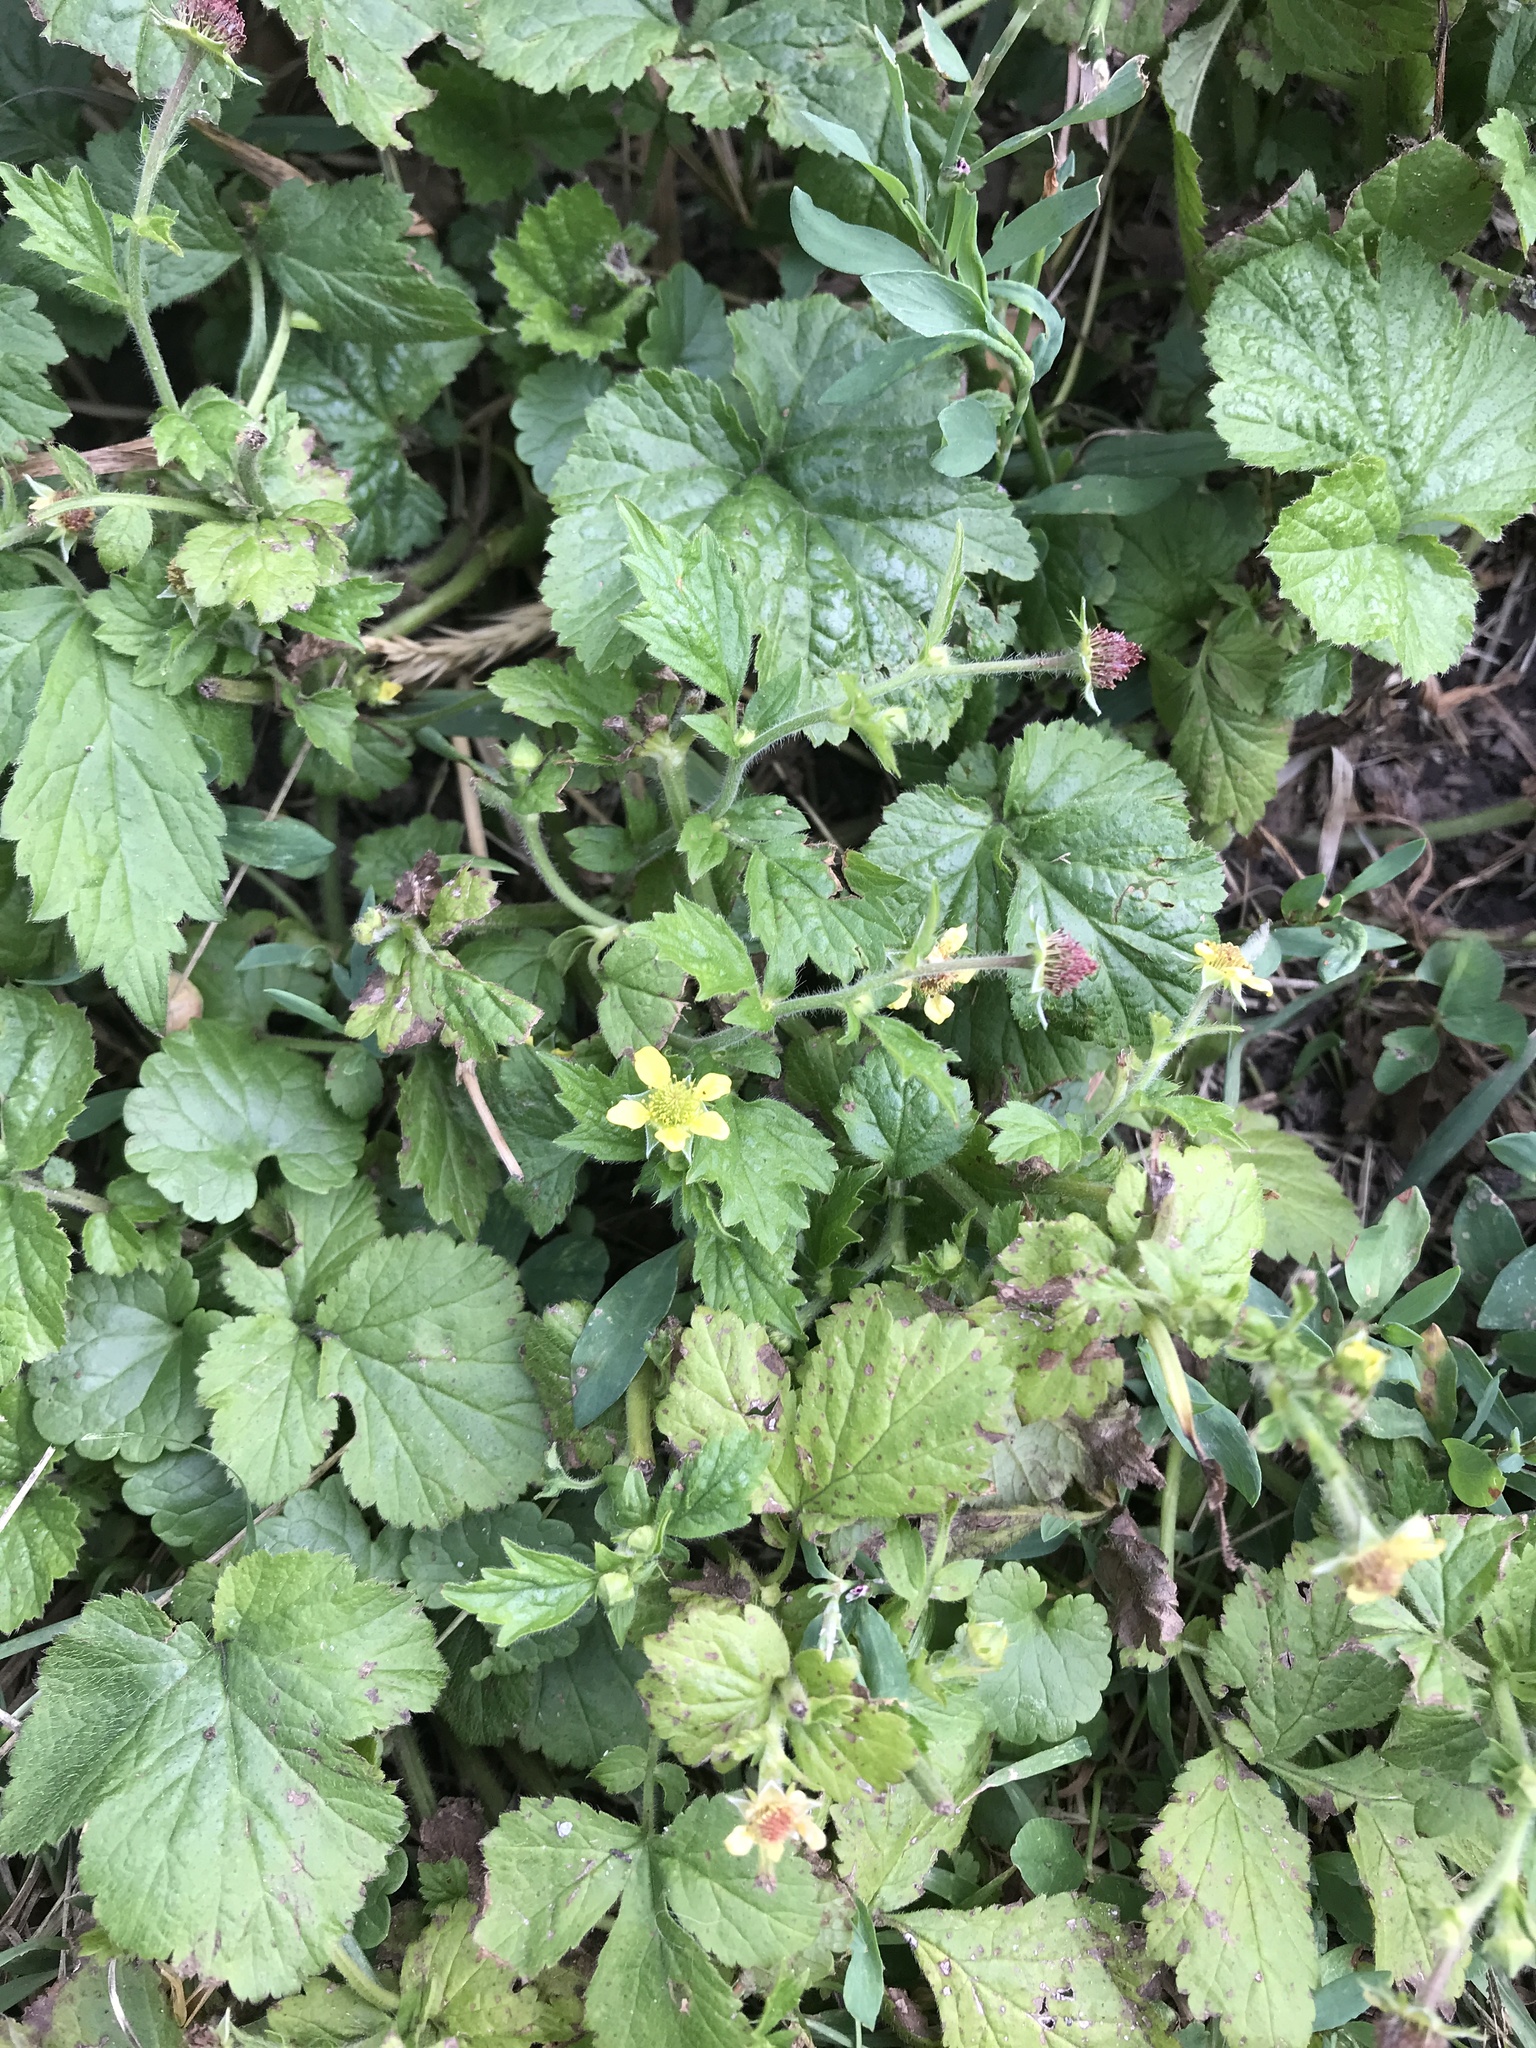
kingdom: Plantae
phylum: Tracheophyta
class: Magnoliopsida
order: Rosales
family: Rosaceae
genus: Geum
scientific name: Geum urbanum
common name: Wood avens
